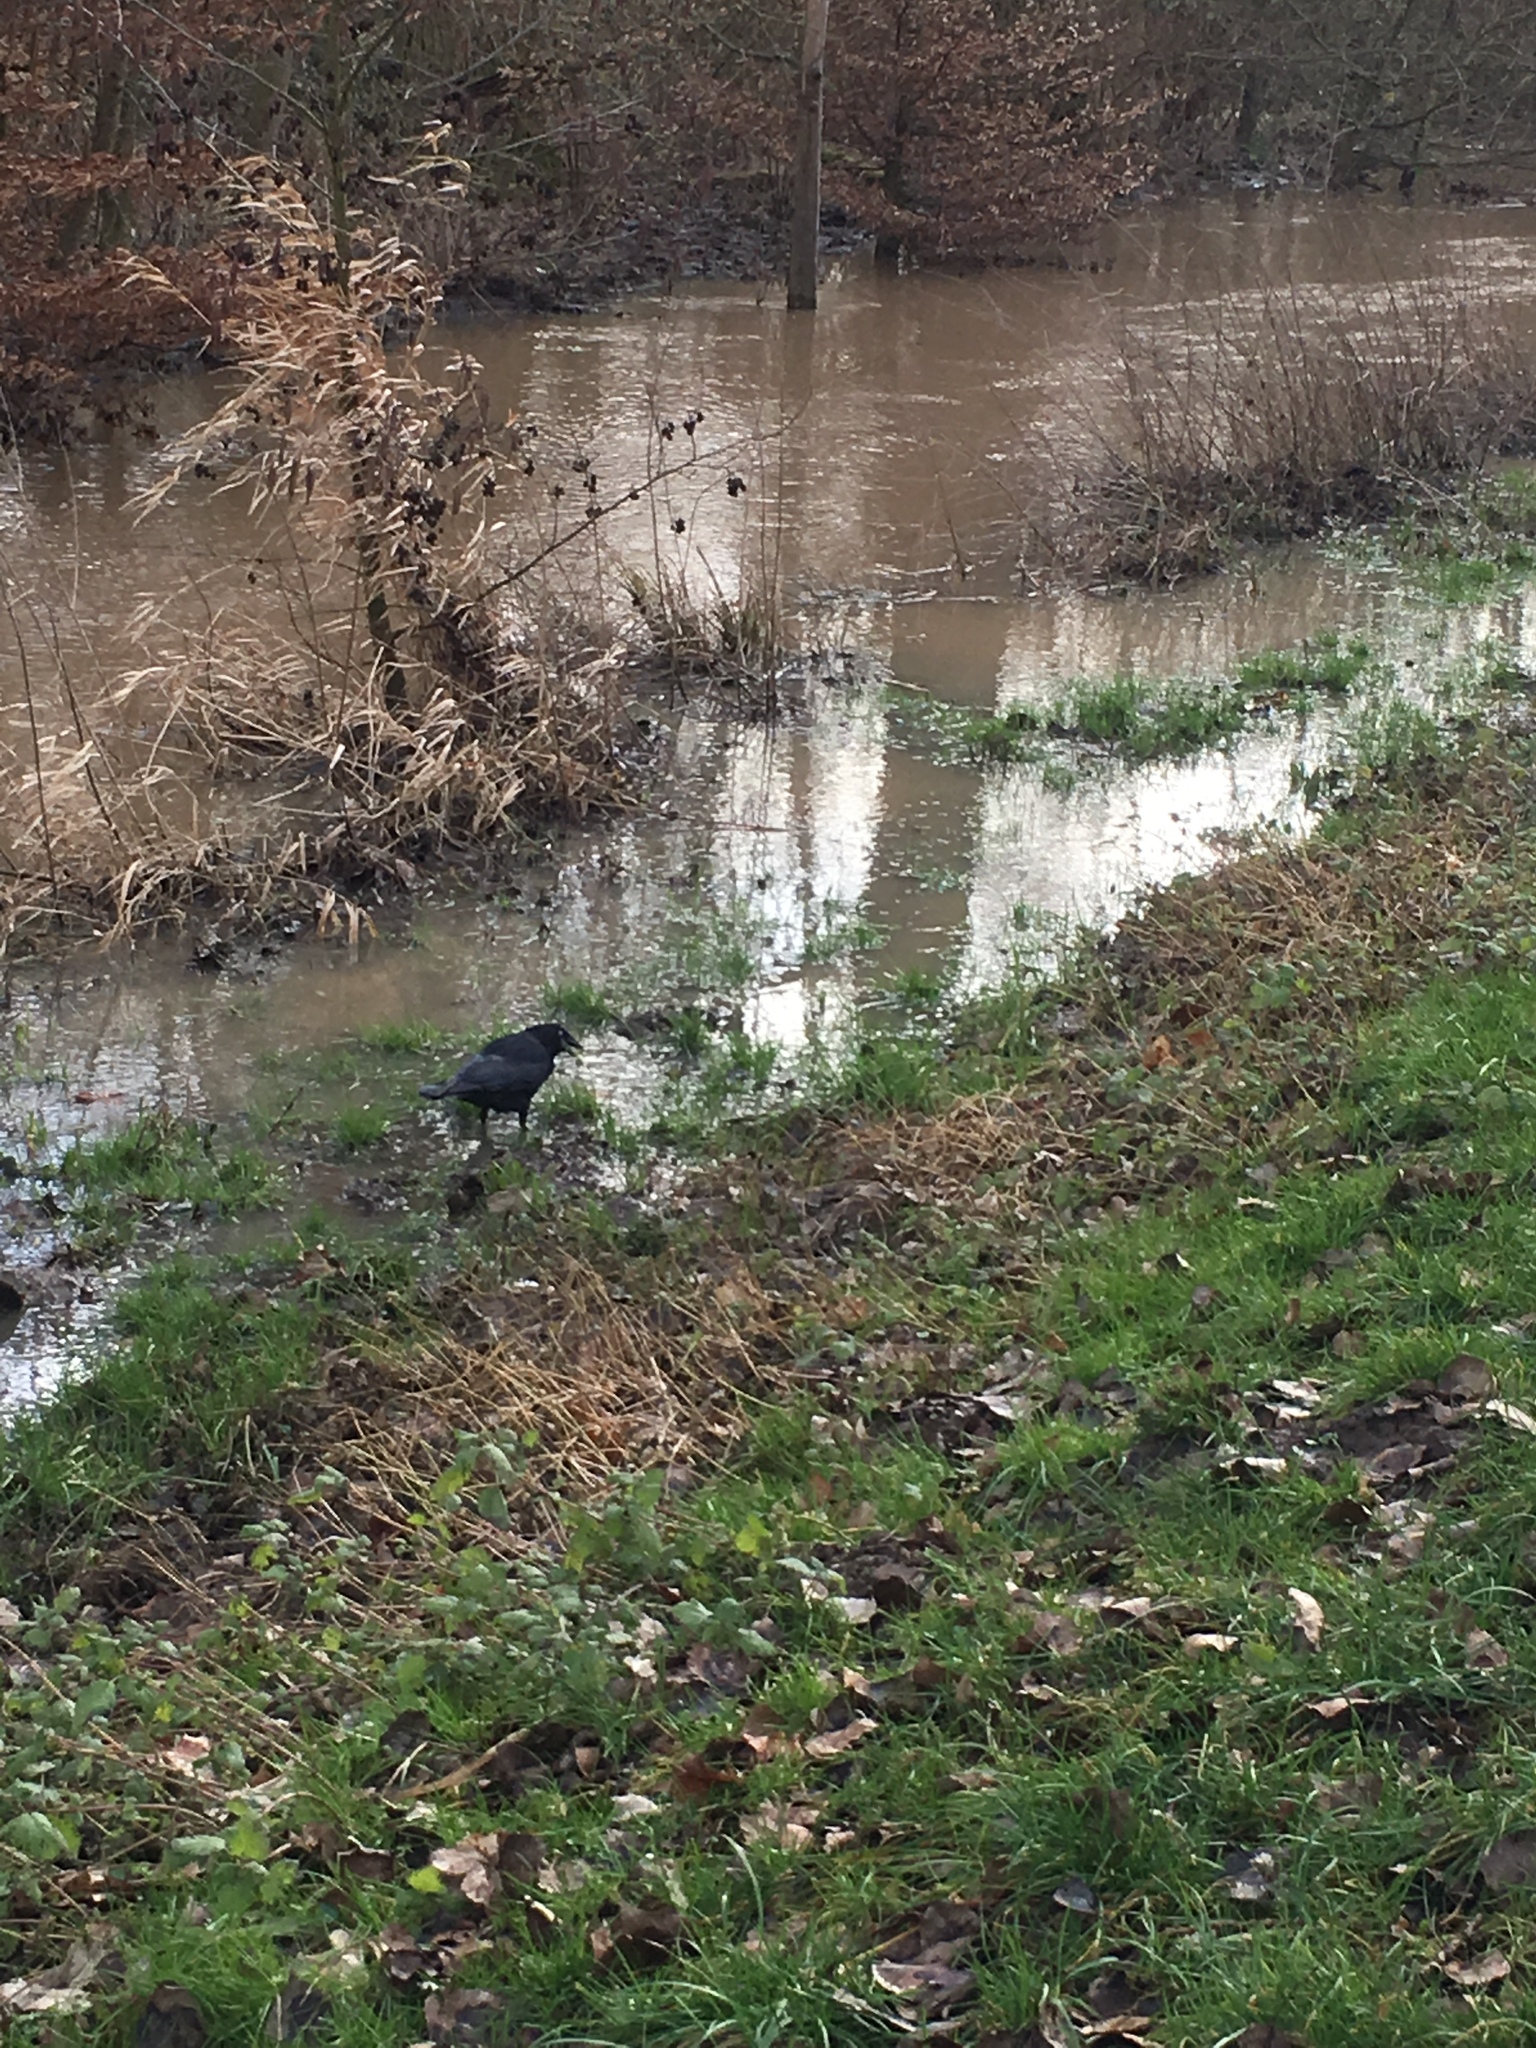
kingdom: Animalia
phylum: Chordata
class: Aves
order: Passeriformes
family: Corvidae
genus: Corvus
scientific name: Corvus corone
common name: Carrion crow
